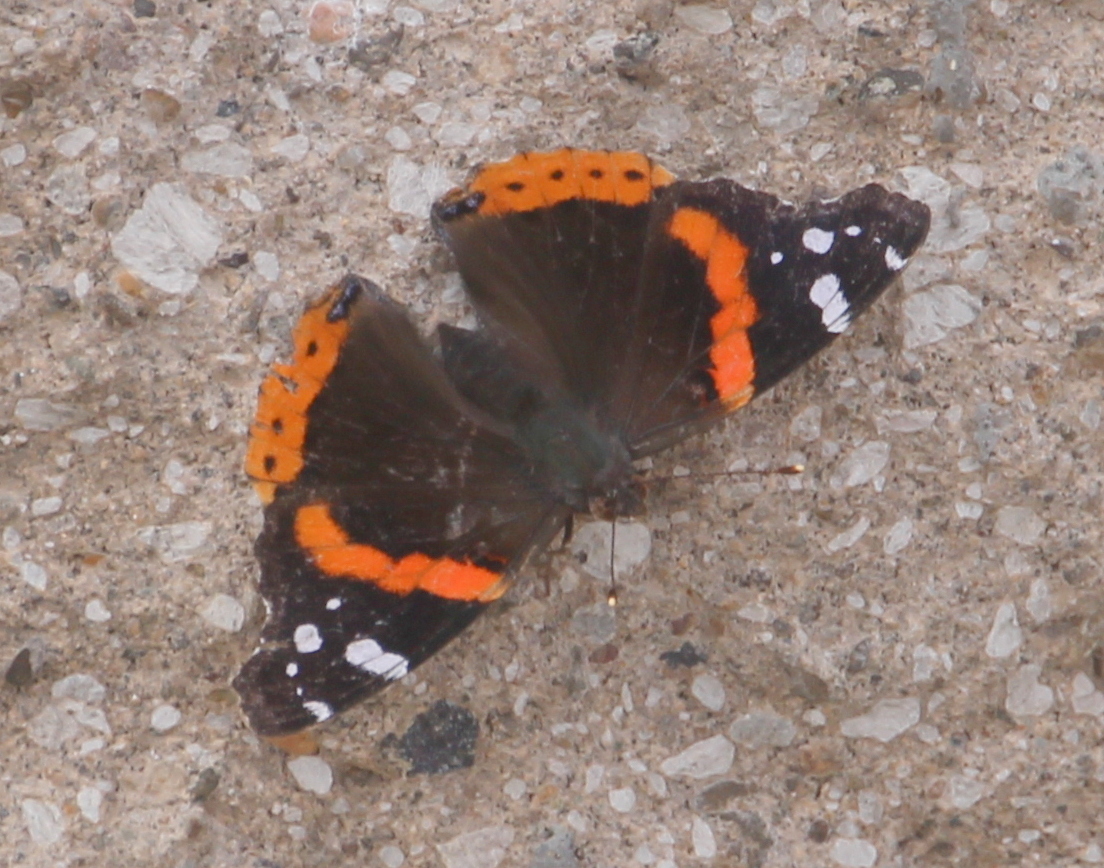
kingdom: Animalia
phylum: Arthropoda
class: Insecta
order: Lepidoptera
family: Nymphalidae
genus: Vanessa
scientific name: Vanessa atalanta
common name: Red admiral
